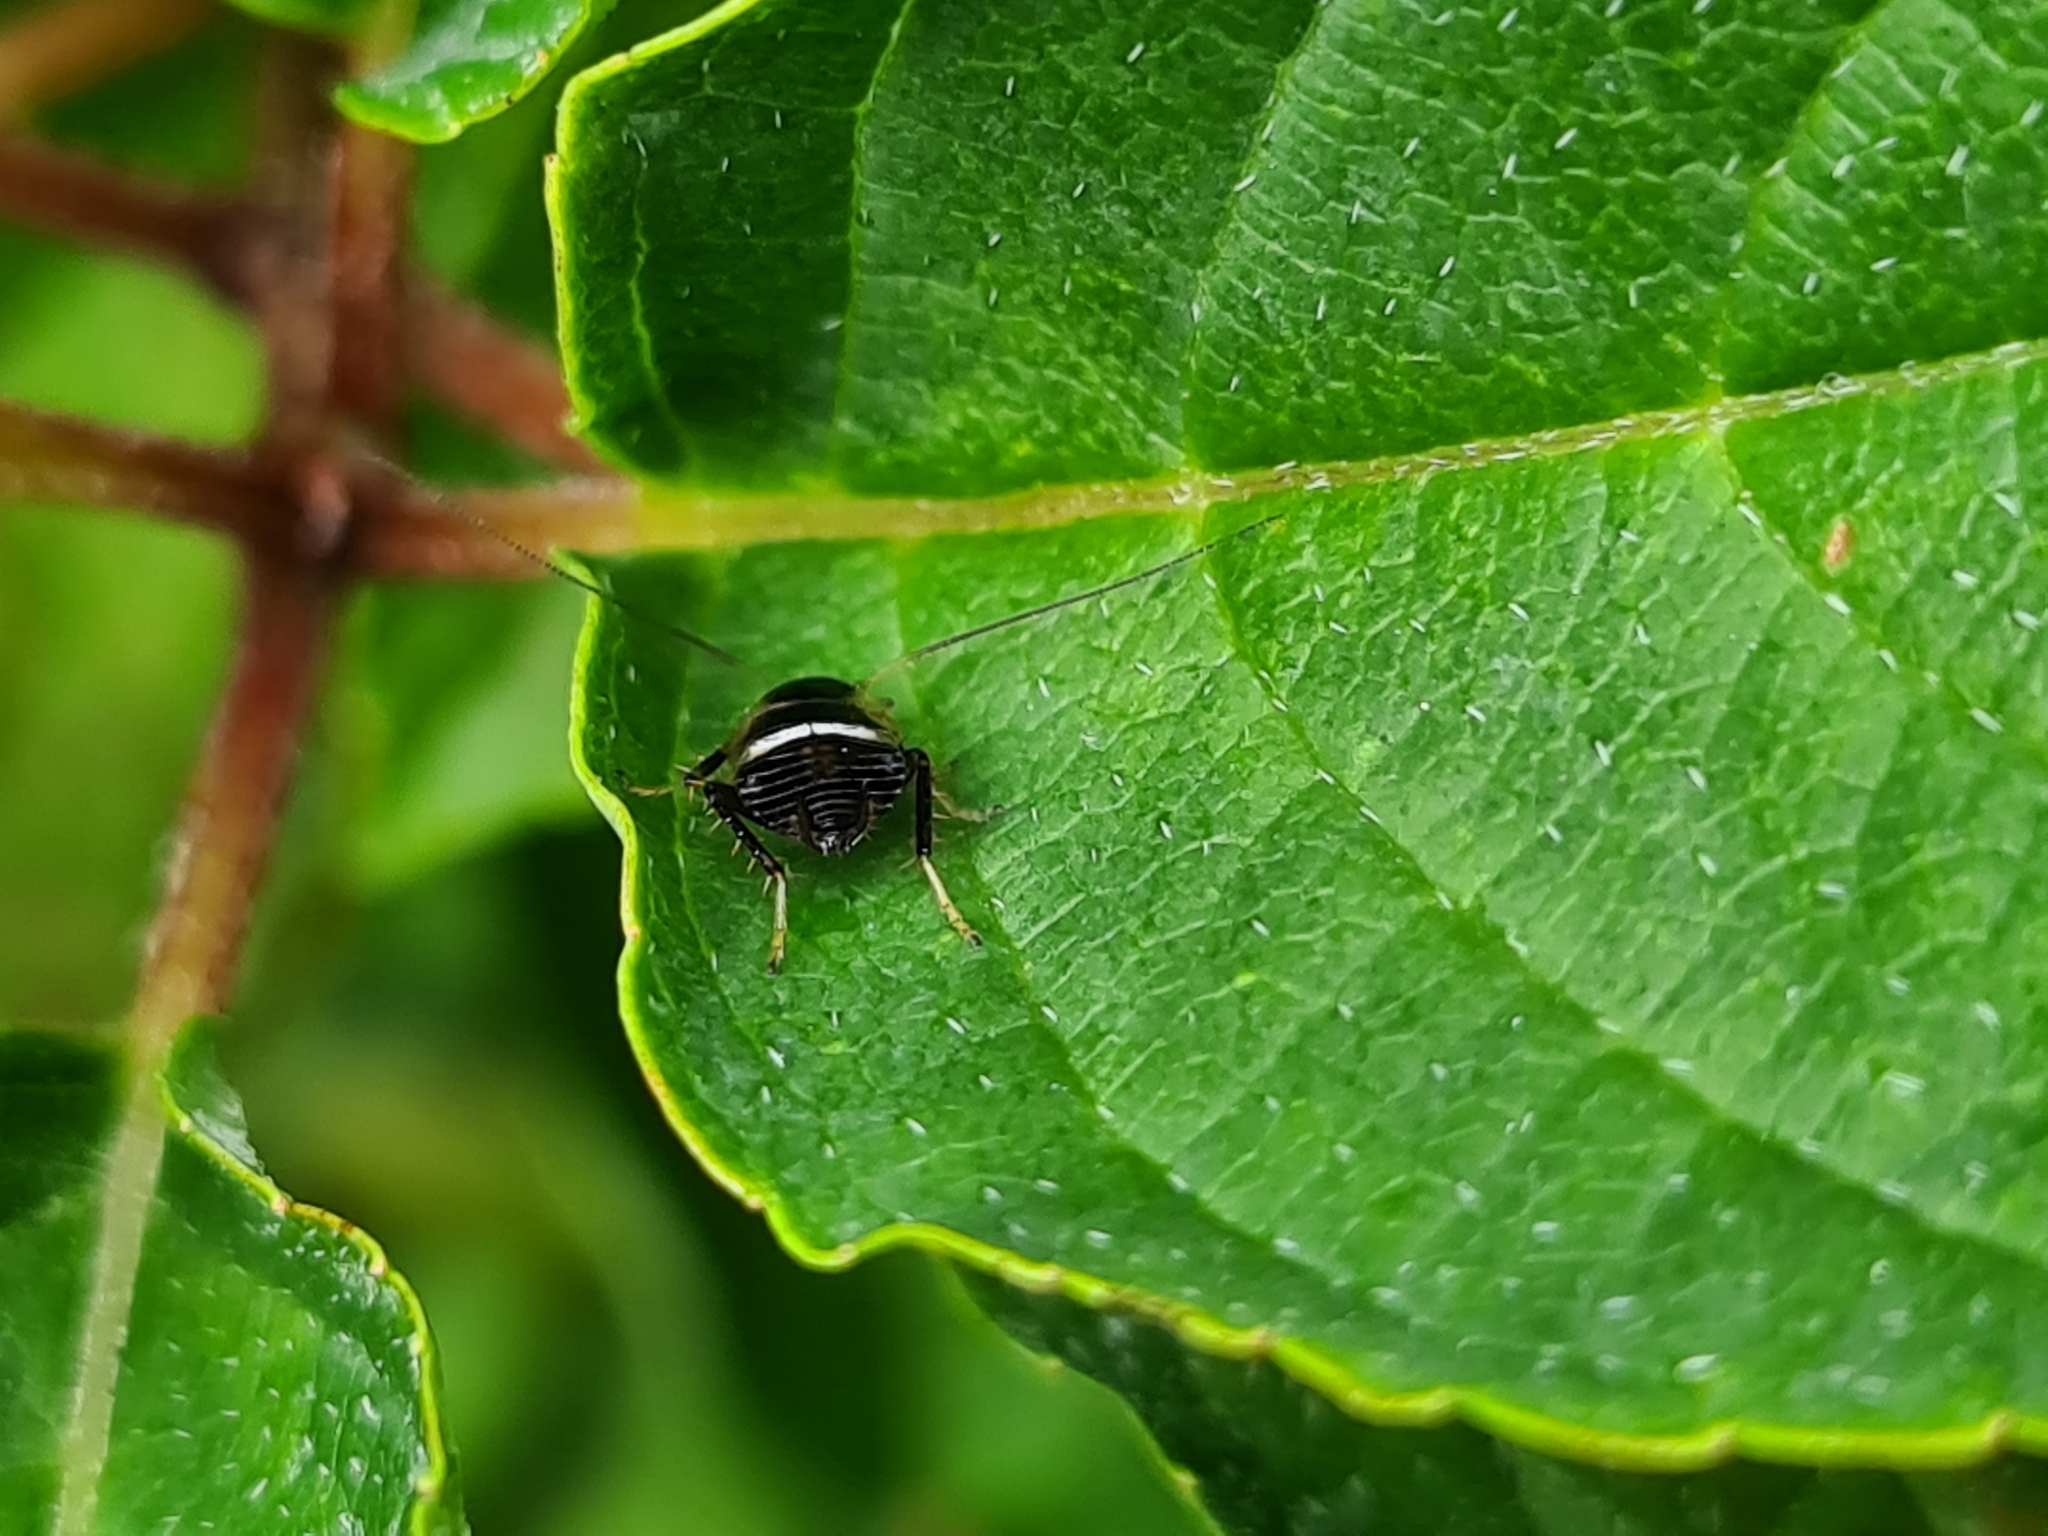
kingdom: Animalia
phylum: Arthropoda
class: Insecta
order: Blattodea
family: Ectobiidae
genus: Planuncus
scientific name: Planuncus vinzi
